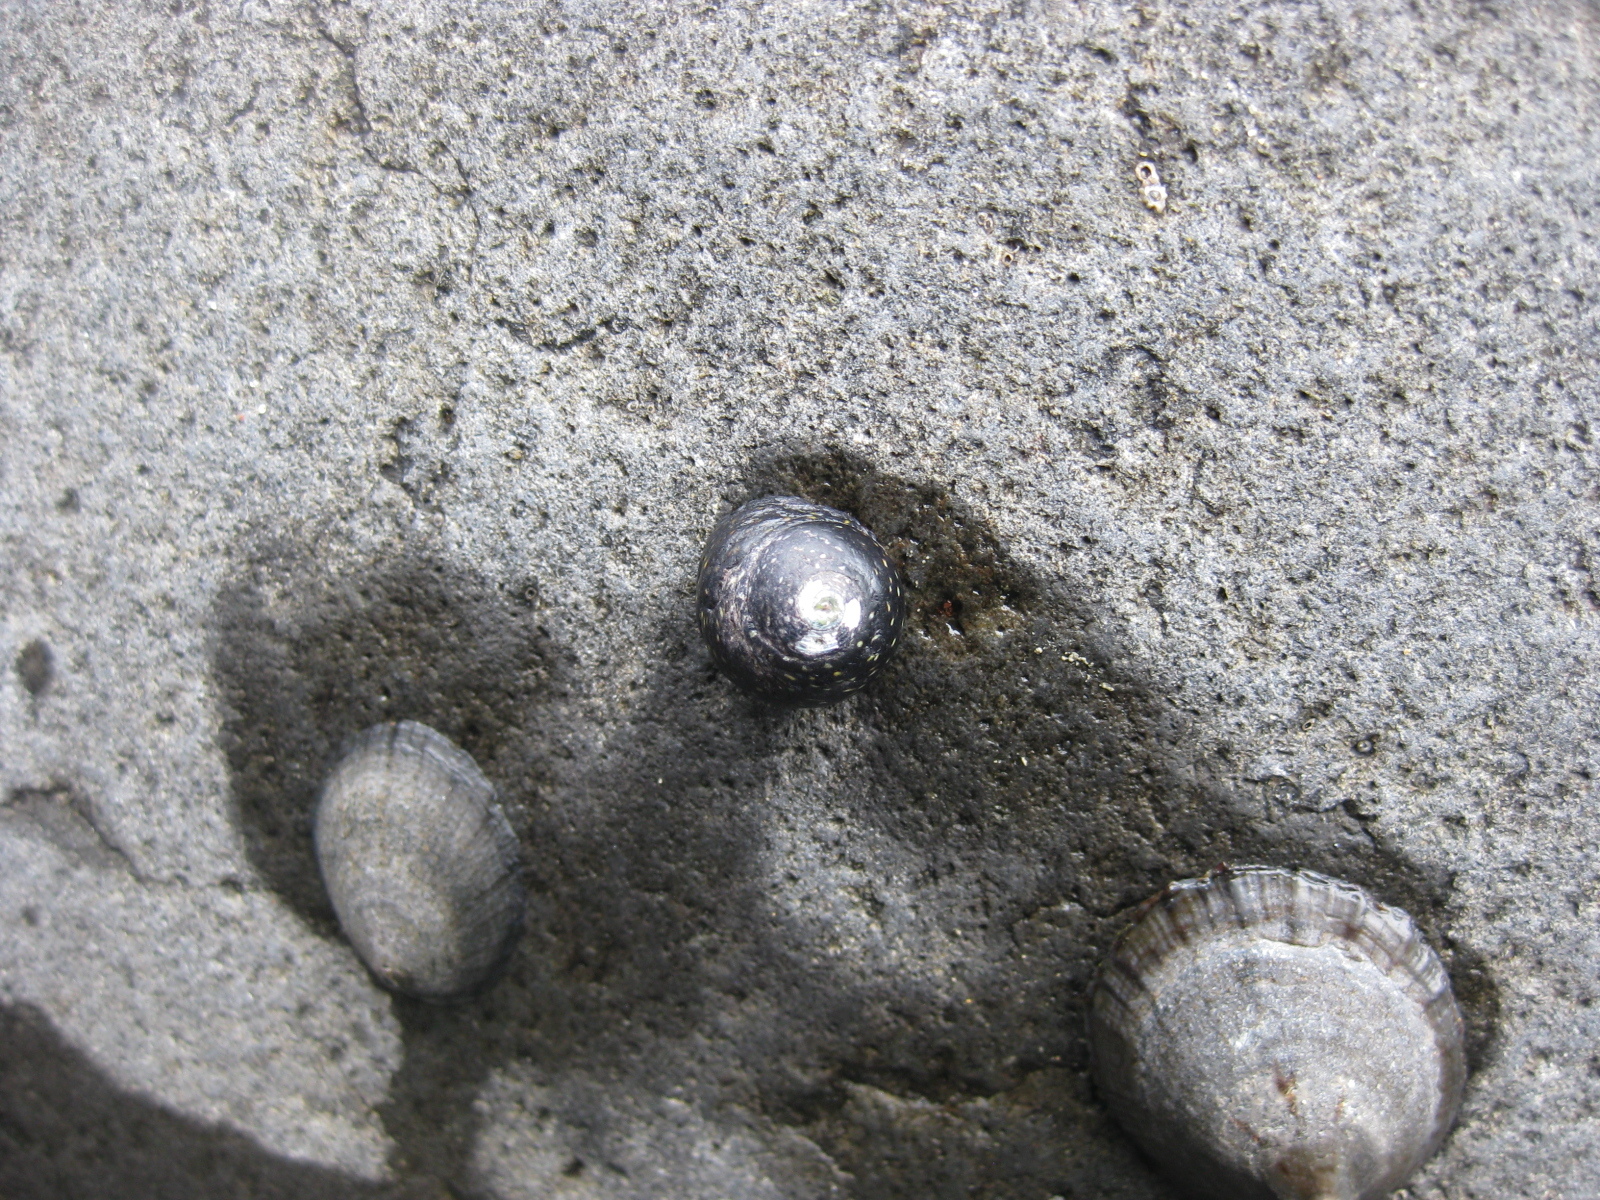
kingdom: Animalia
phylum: Mollusca
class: Gastropoda
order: Trochida
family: Trochidae
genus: Diloma
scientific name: Diloma aridum
